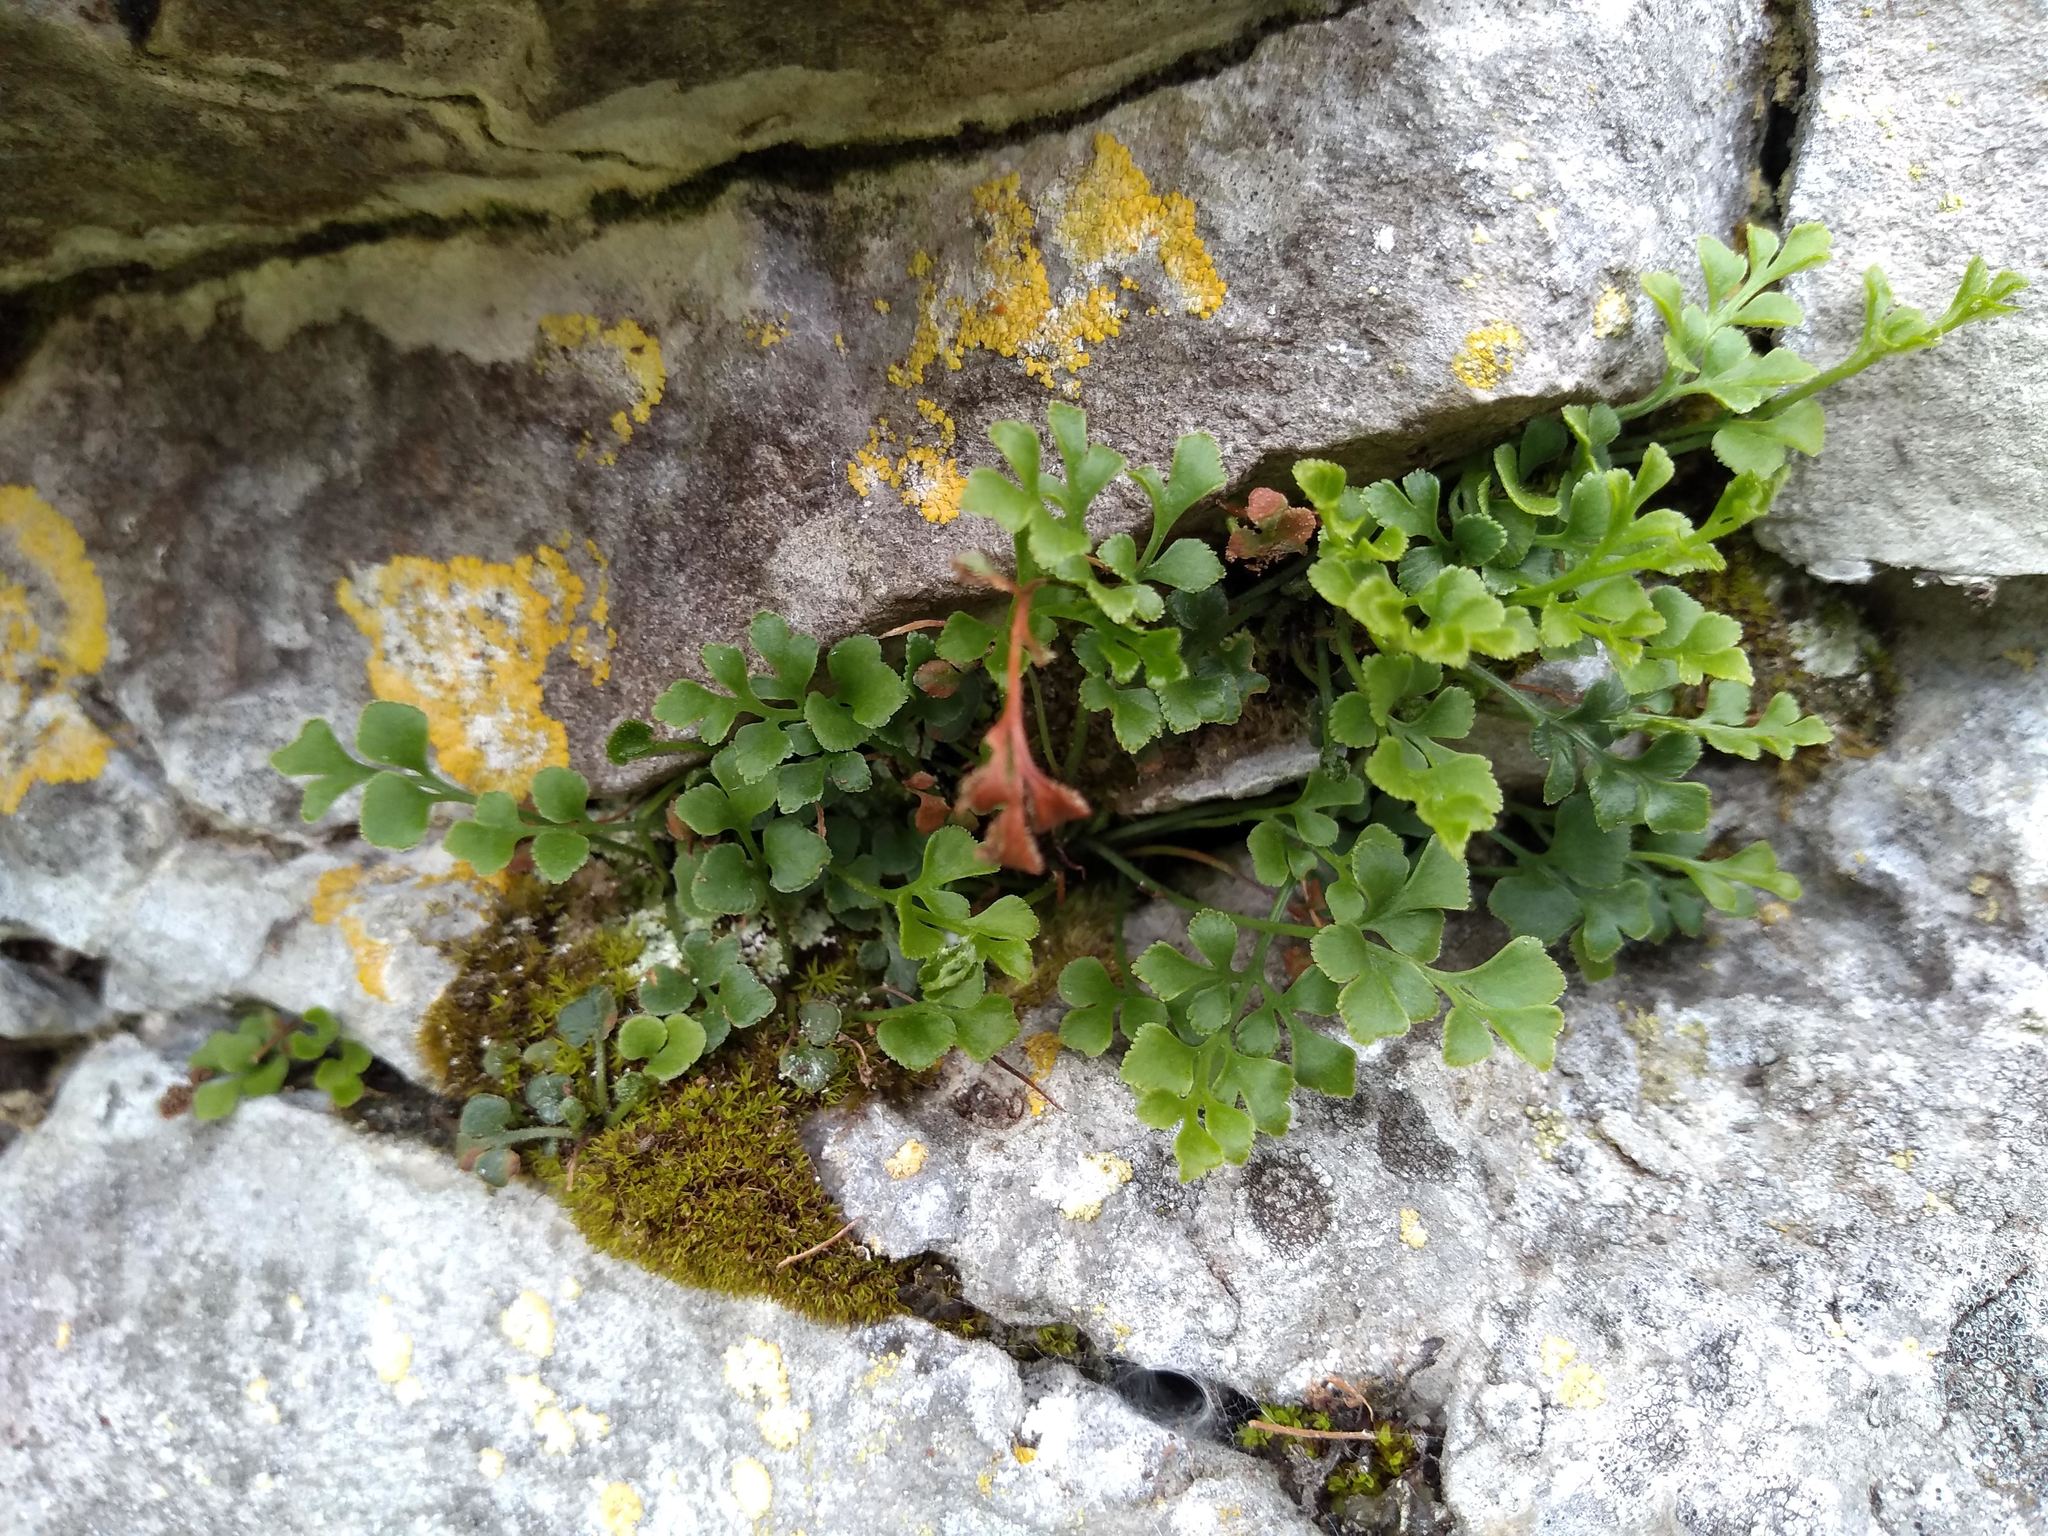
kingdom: Plantae
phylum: Tracheophyta
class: Polypodiopsida
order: Polypodiales
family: Aspleniaceae
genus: Asplenium
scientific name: Asplenium ruta-muraria
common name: Wall-rue
